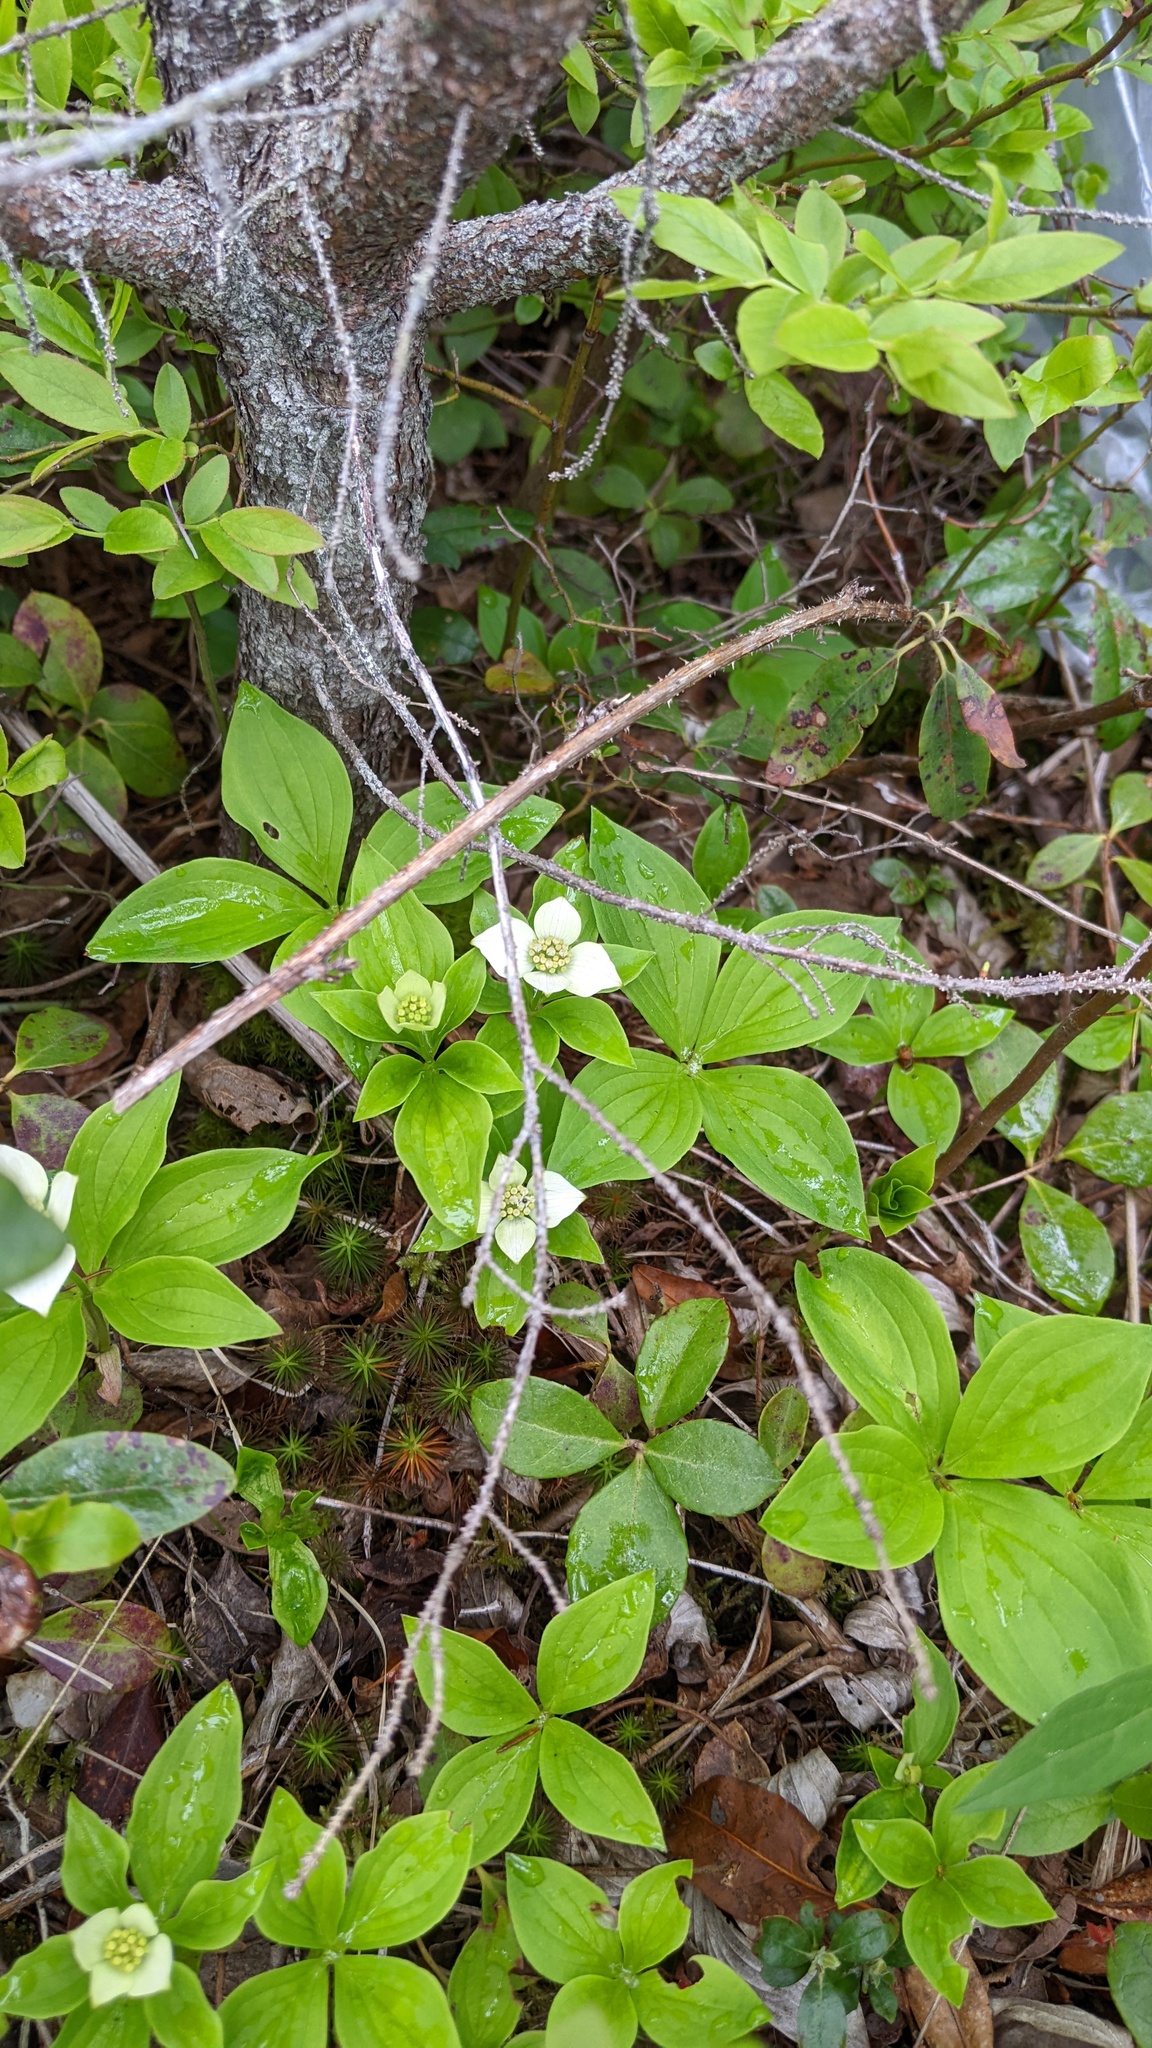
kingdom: Plantae
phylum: Tracheophyta
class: Magnoliopsida
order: Cornales
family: Cornaceae
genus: Cornus
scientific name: Cornus canadensis
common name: Creeping dogwood
